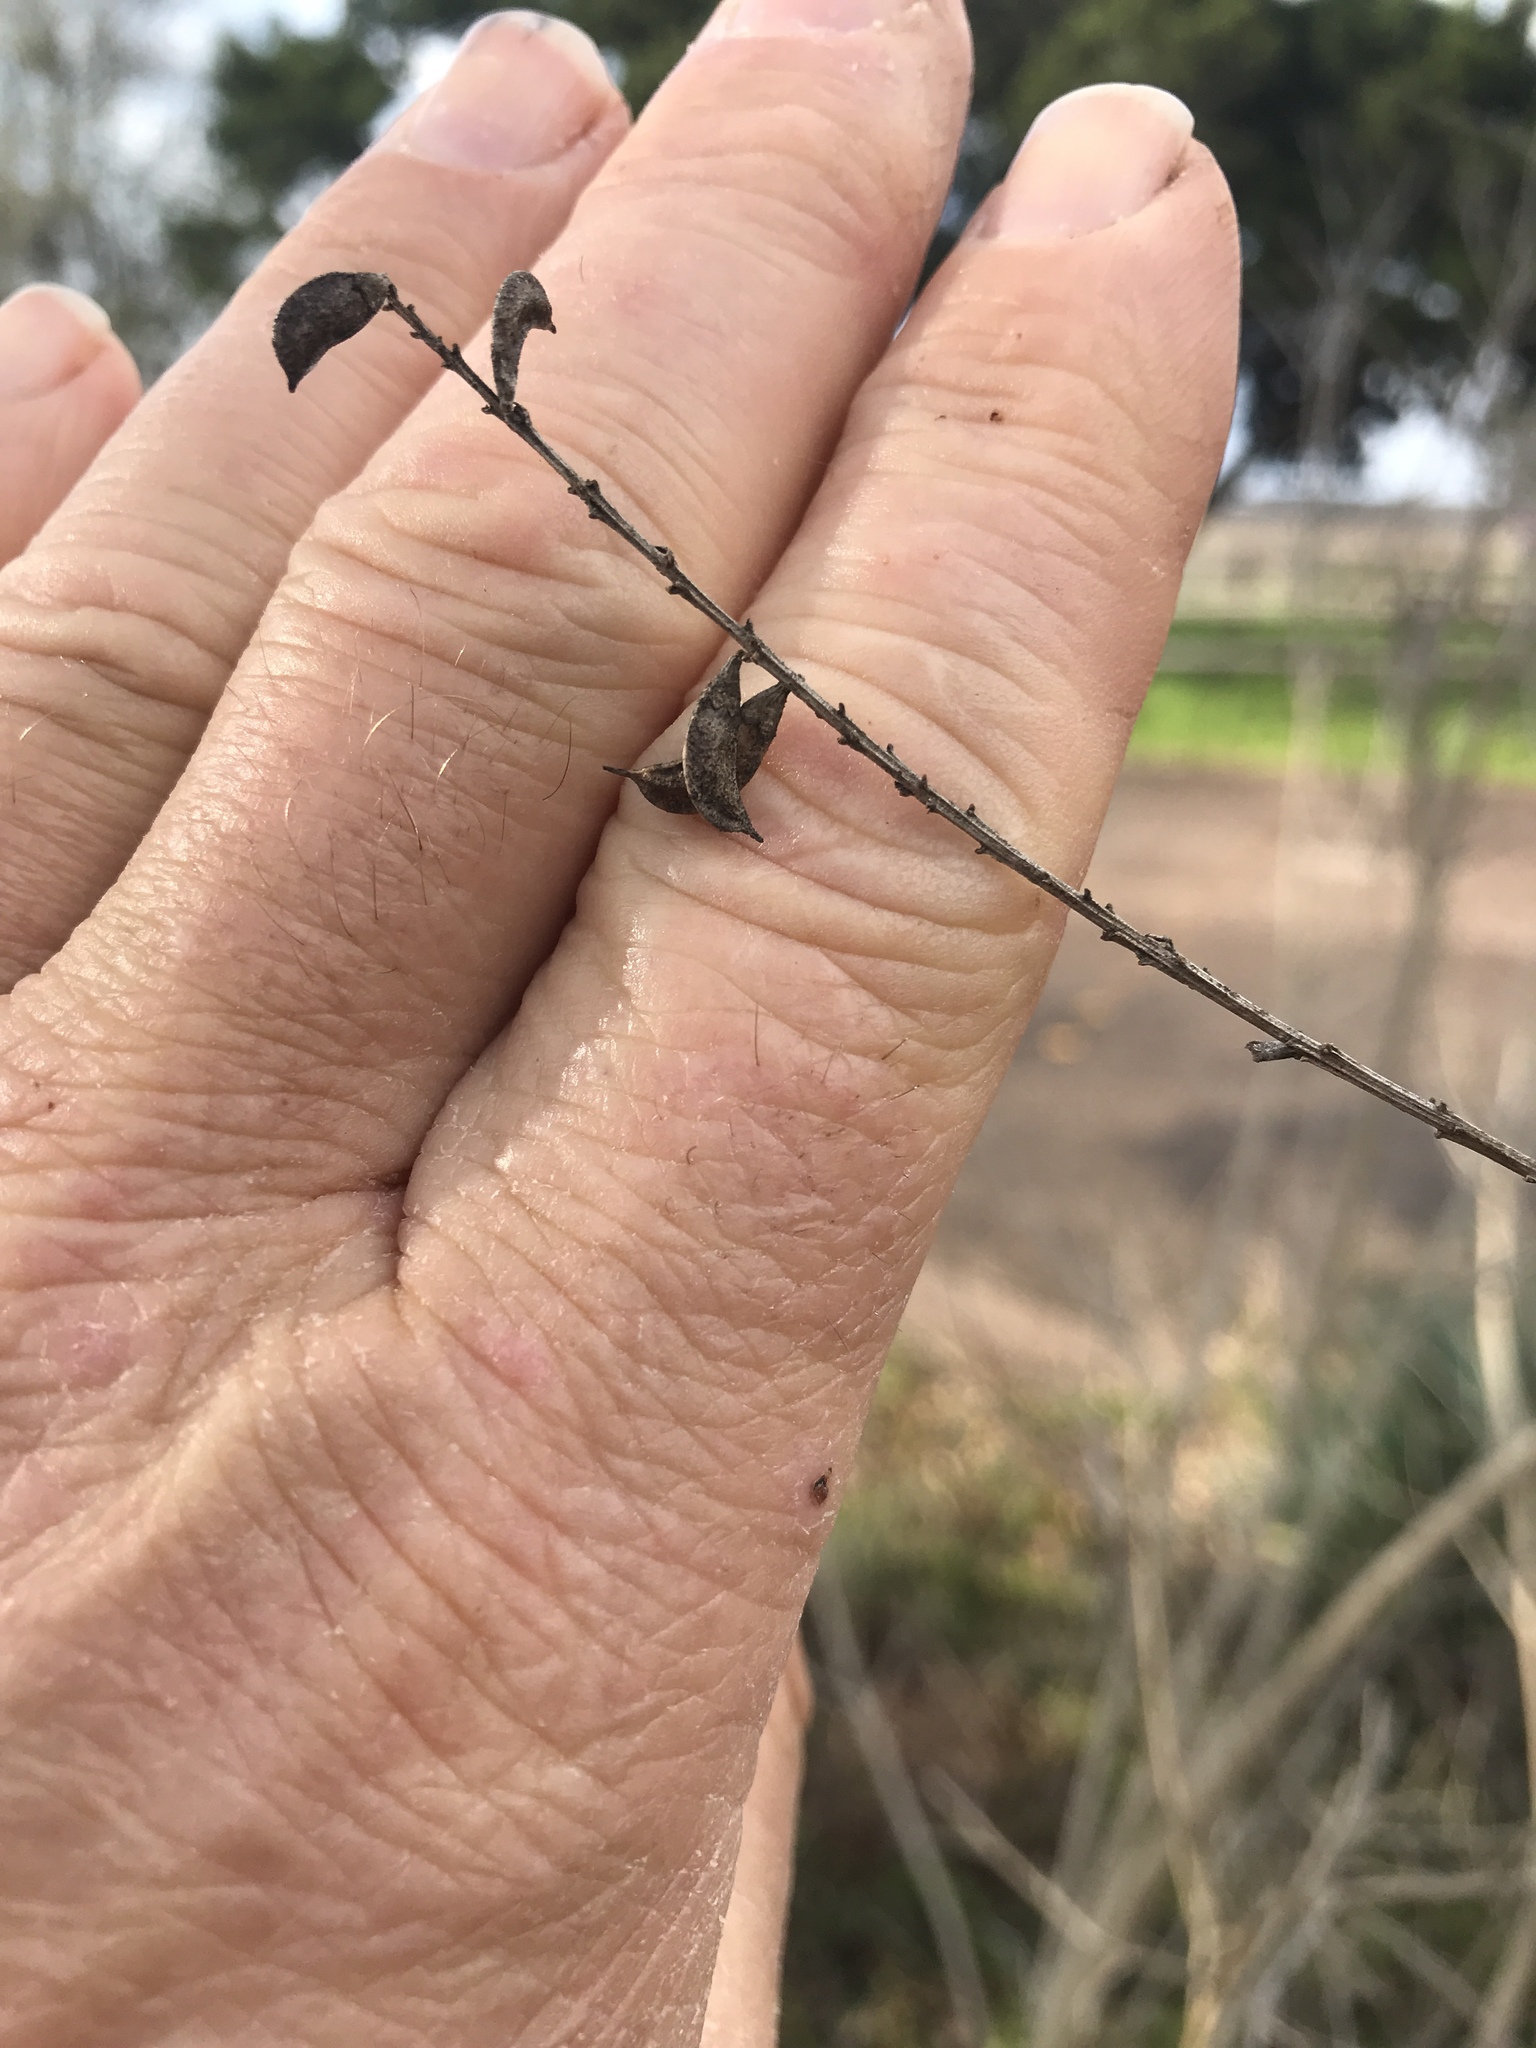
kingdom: Plantae
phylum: Tracheophyta
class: Magnoliopsida
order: Fabales
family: Fabaceae
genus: Eysenhardtia
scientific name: Eysenhardtia texana
